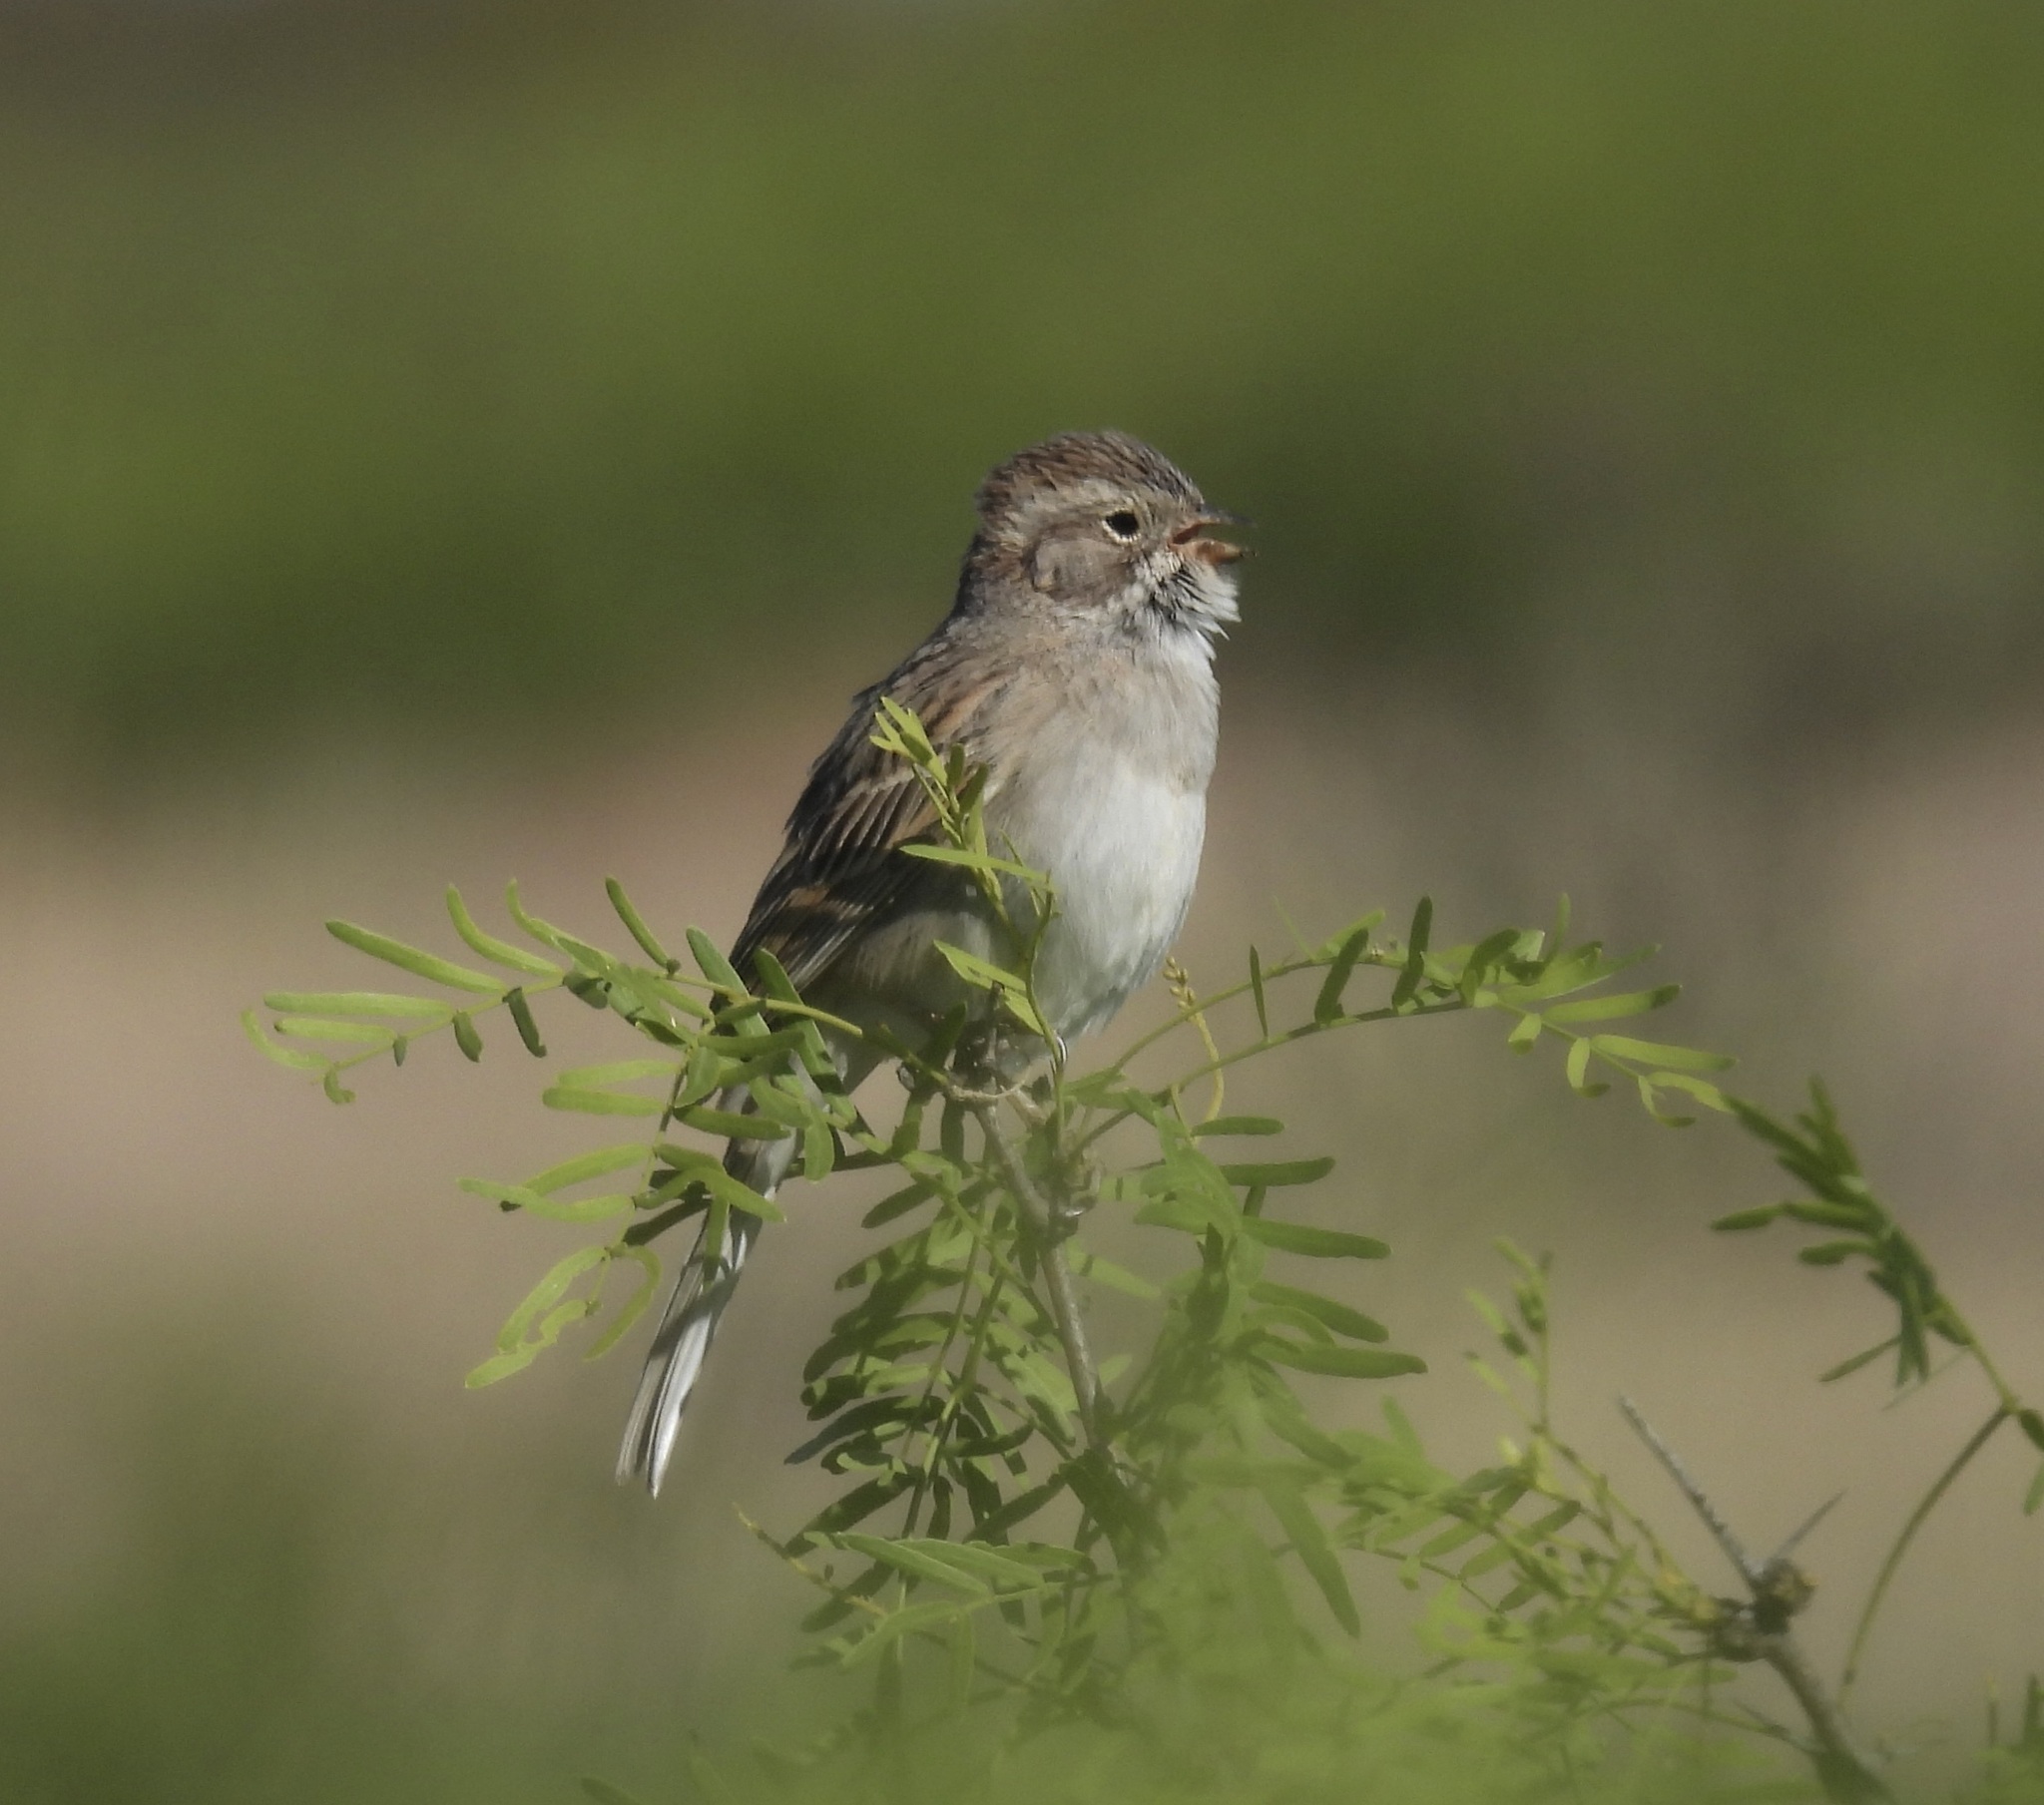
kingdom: Animalia
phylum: Chordata
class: Aves
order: Passeriformes
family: Passerellidae
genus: Spizella
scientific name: Spizella breweri
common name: Brewer's sparrow
